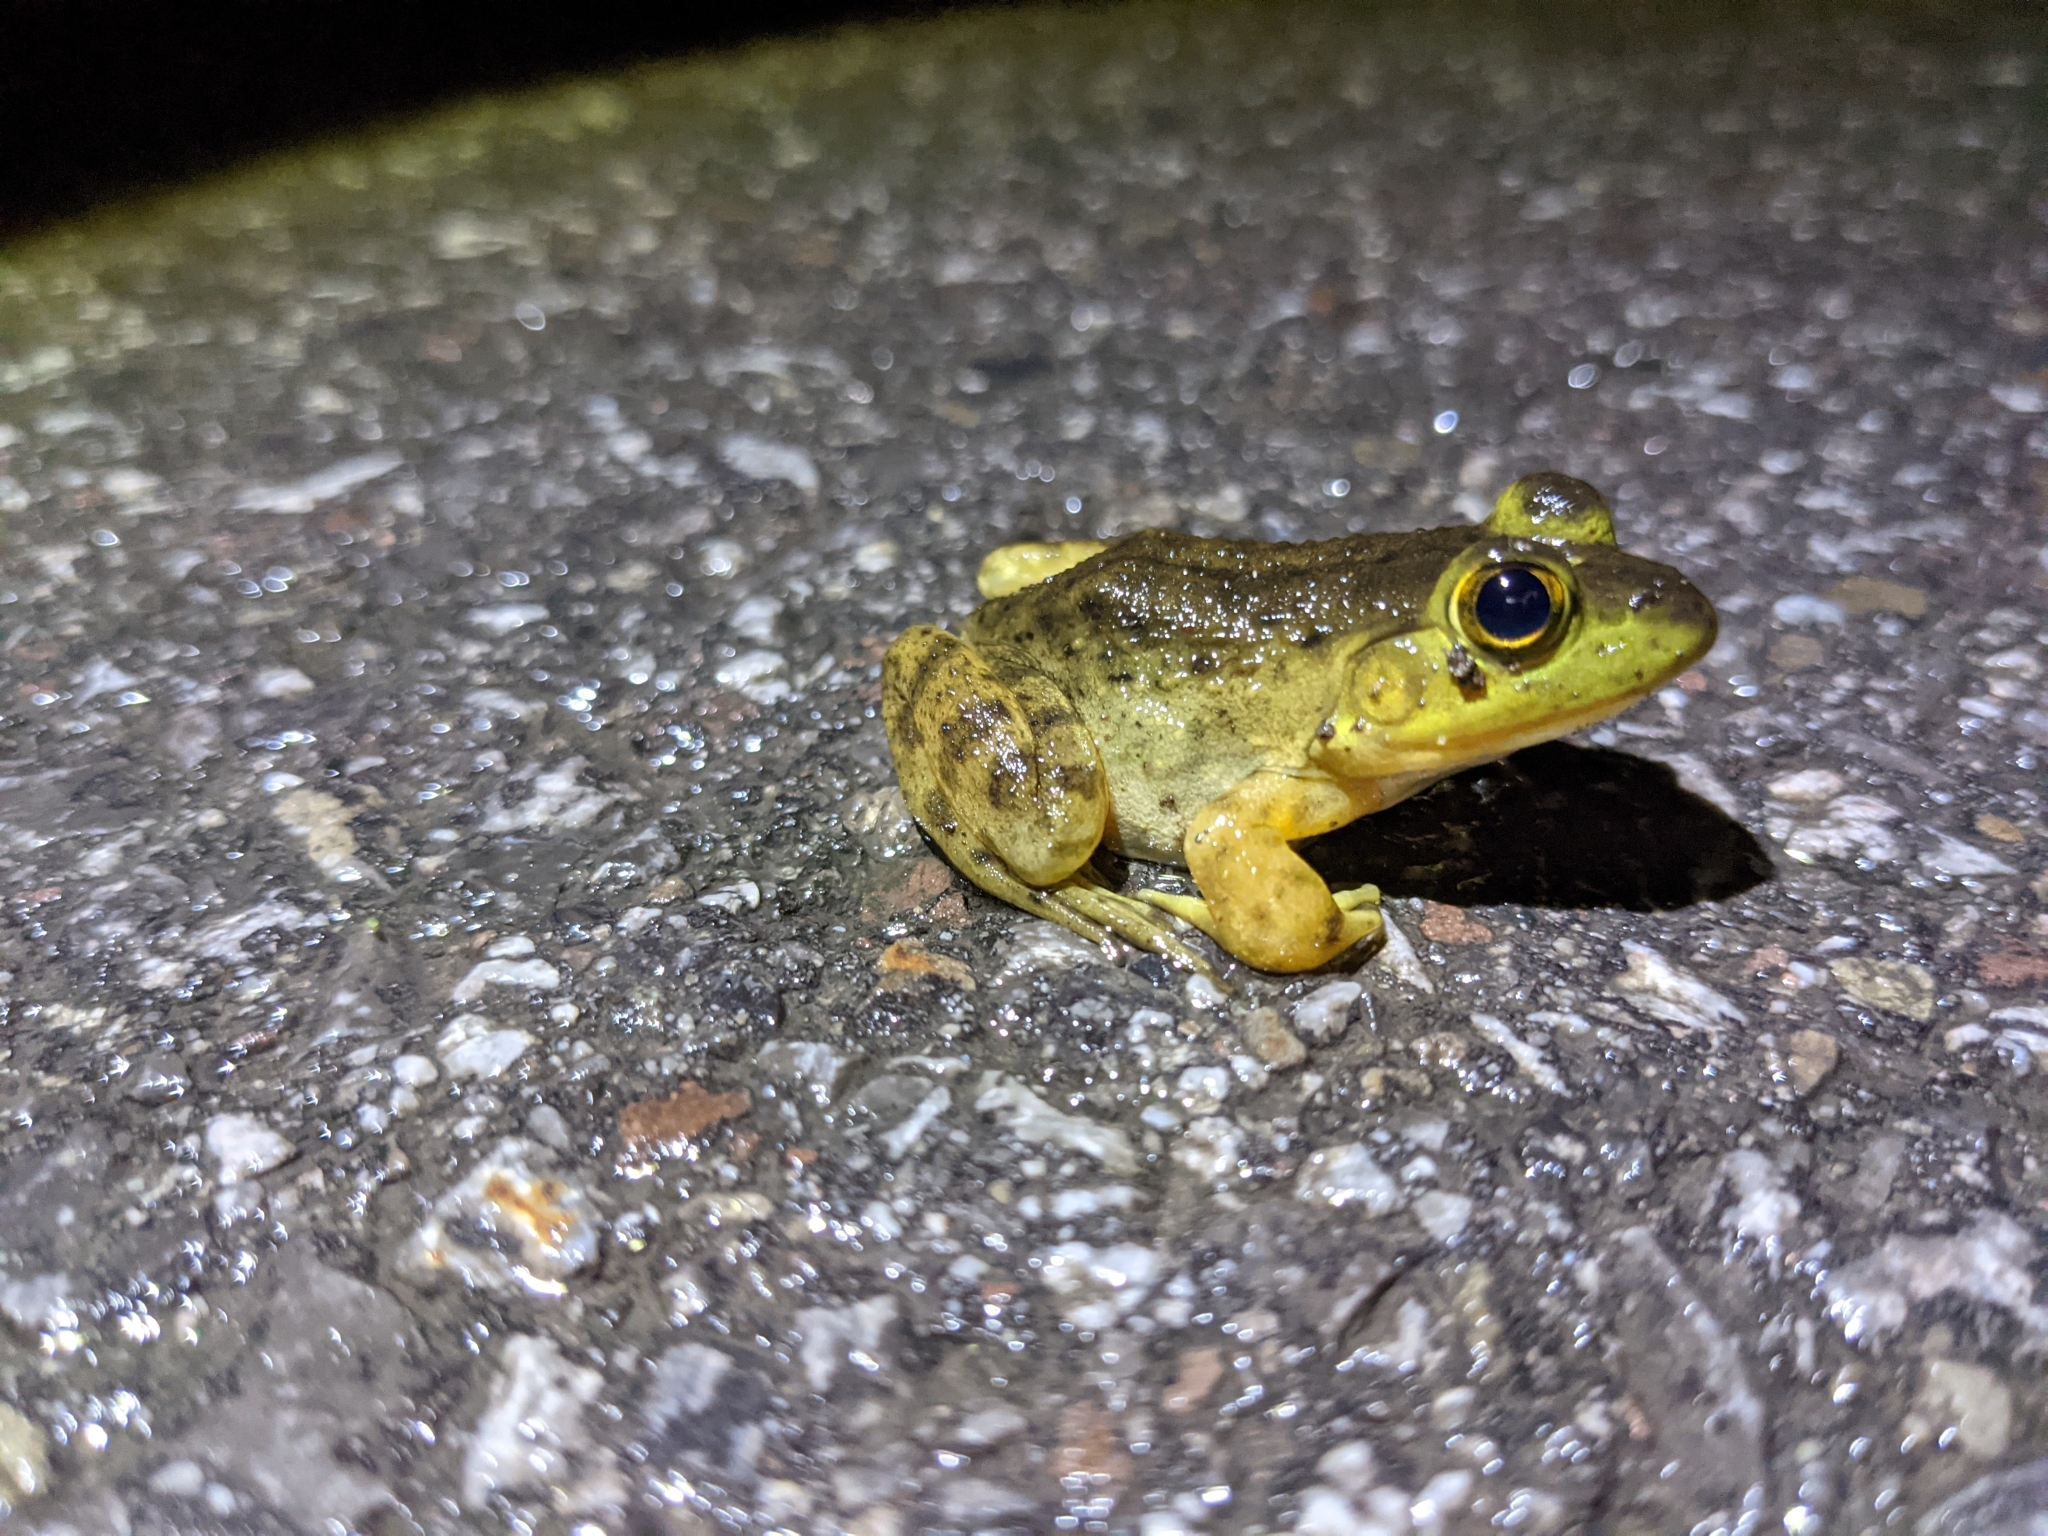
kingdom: Animalia
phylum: Chordata
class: Amphibia
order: Anura
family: Ranidae
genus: Lithobates
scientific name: Lithobates catesbeianus
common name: American bullfrog
